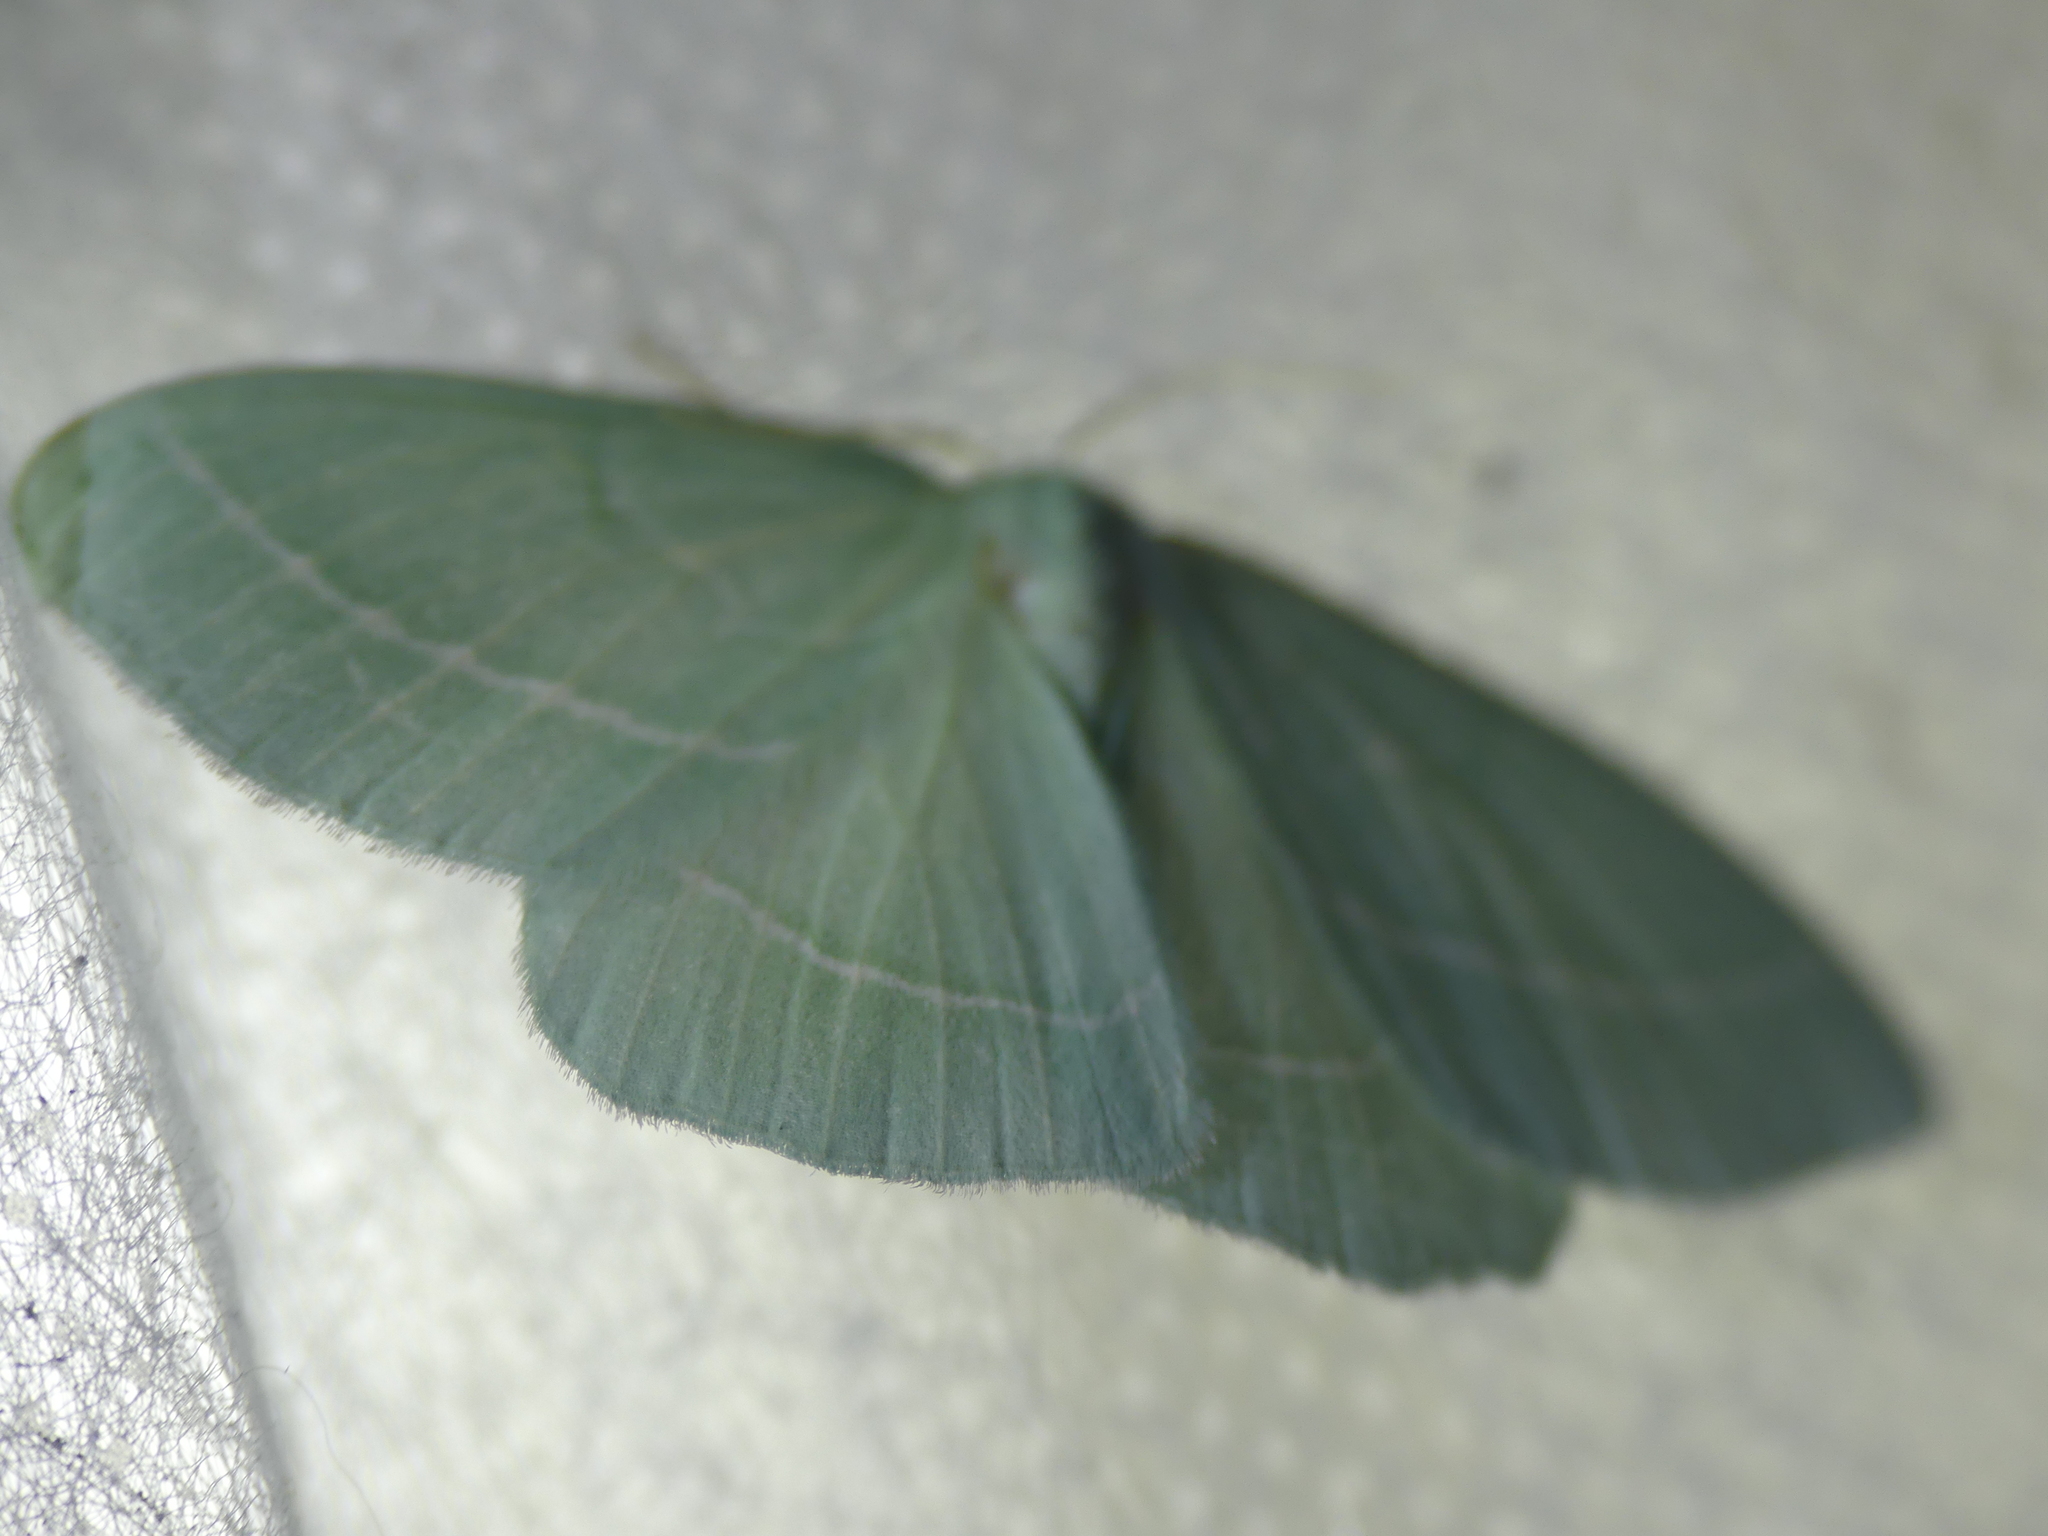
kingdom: Animalia
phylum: Arthropoda
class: Insecta
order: Lepidoptera
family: Geometridae
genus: Hemistola
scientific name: Hemistola chrysoprasaria
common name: Small emerald
